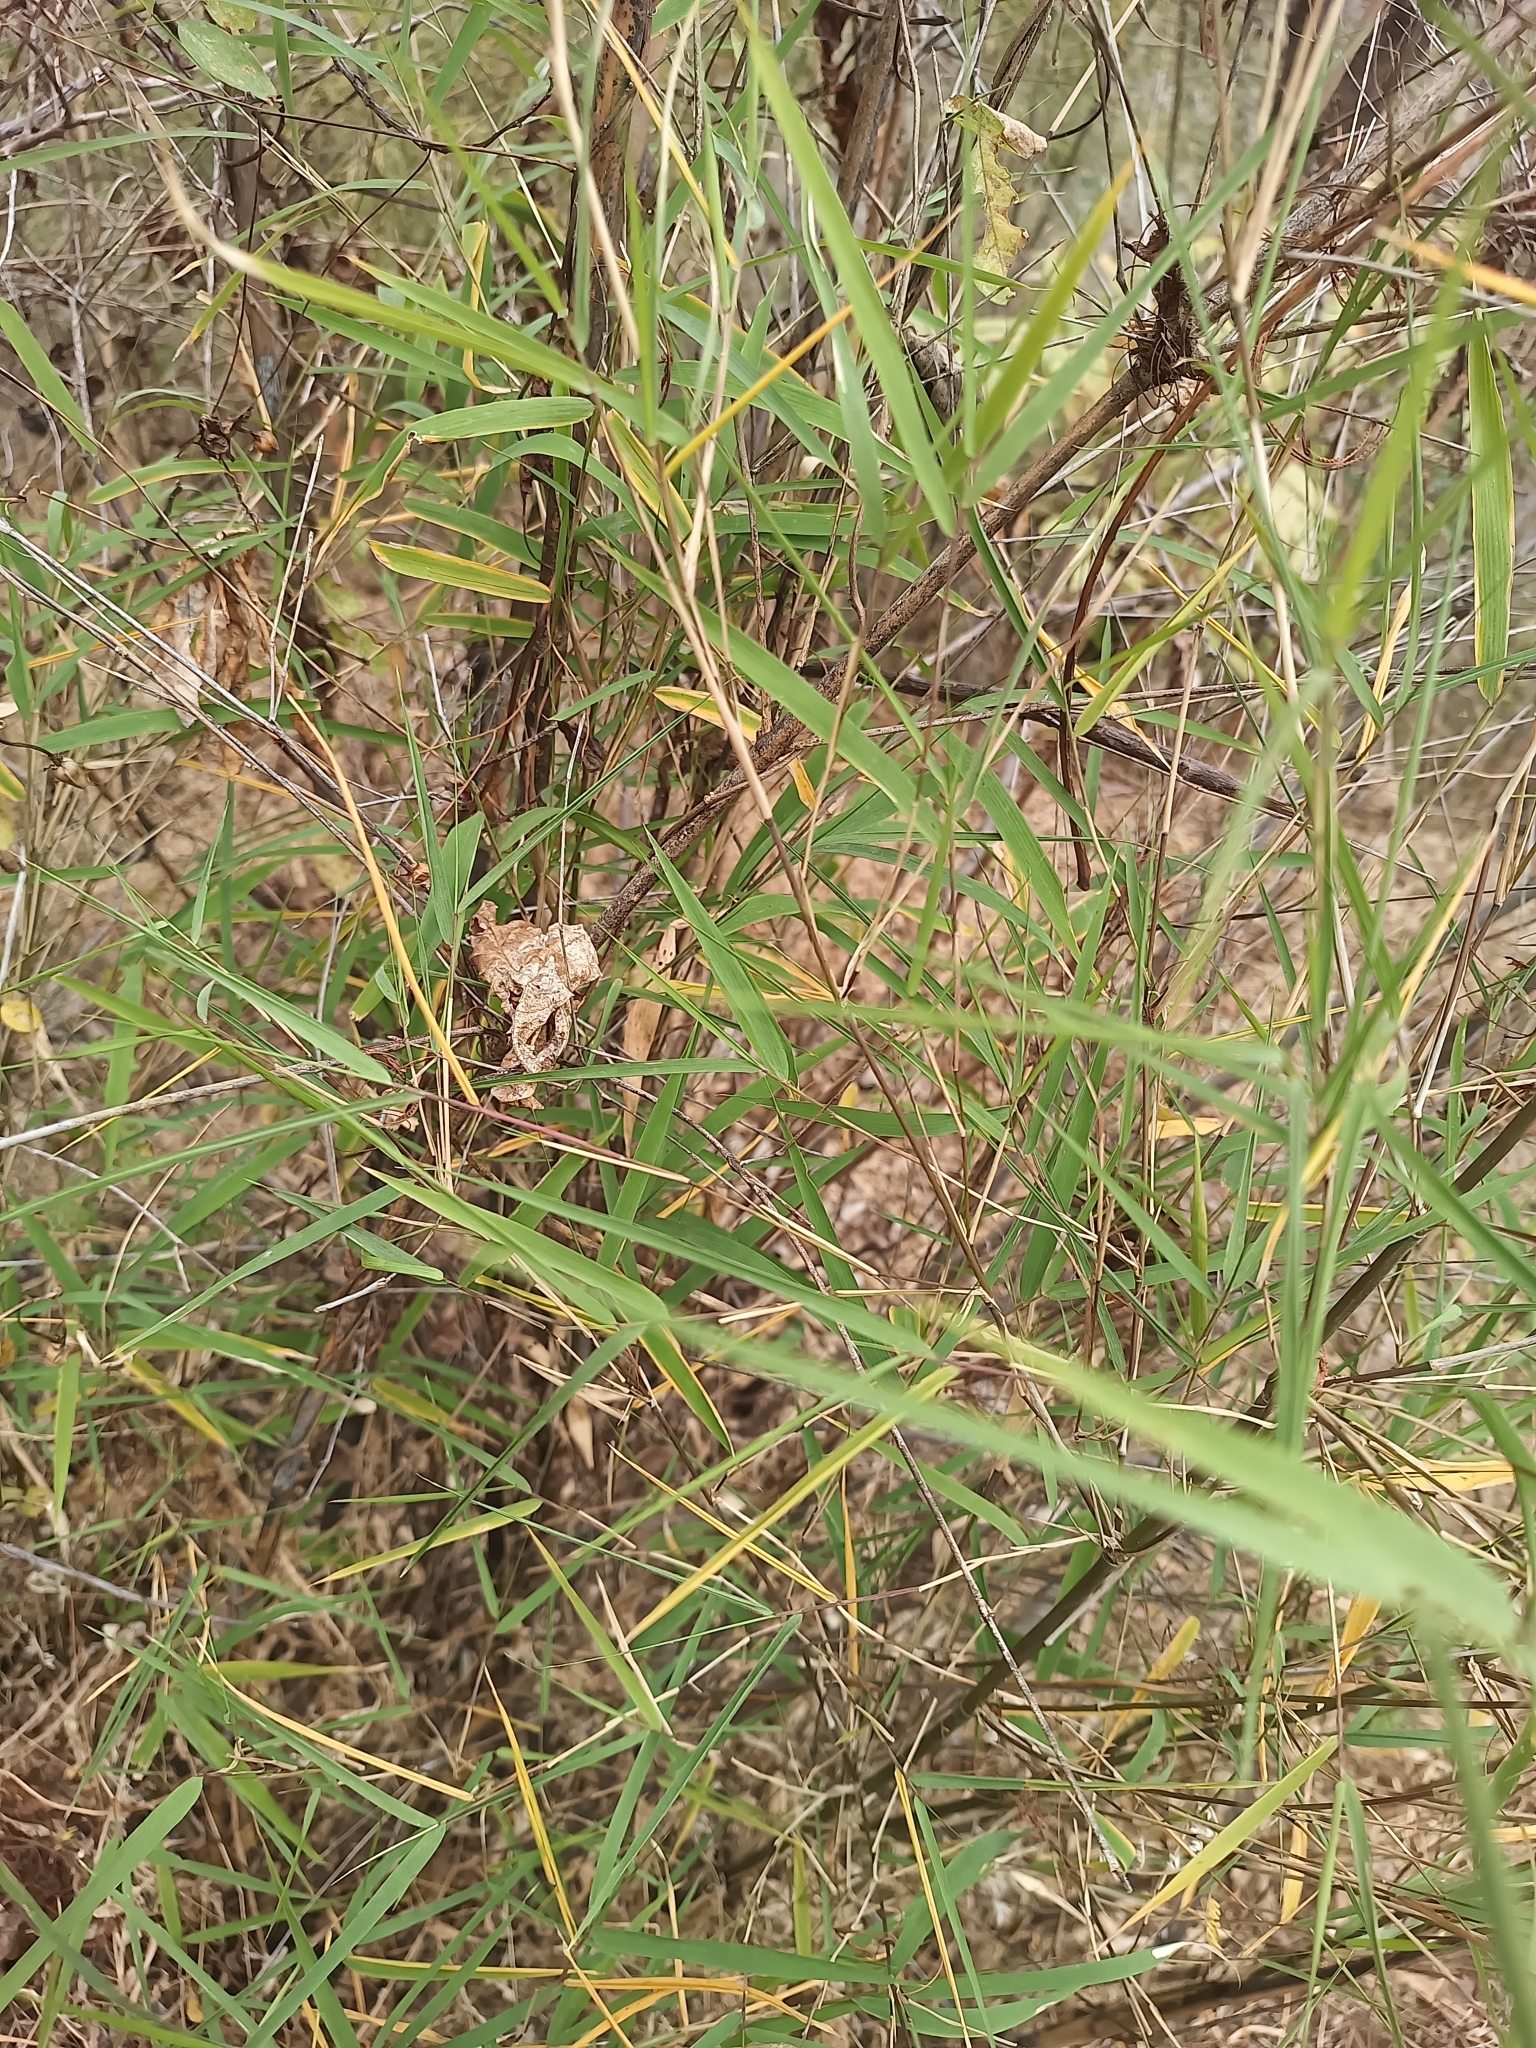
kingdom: Plantae
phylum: Tracheophyta
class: Liliopsida
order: Poales
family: Poaceae
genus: Otatea
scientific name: Otatea acuminata
